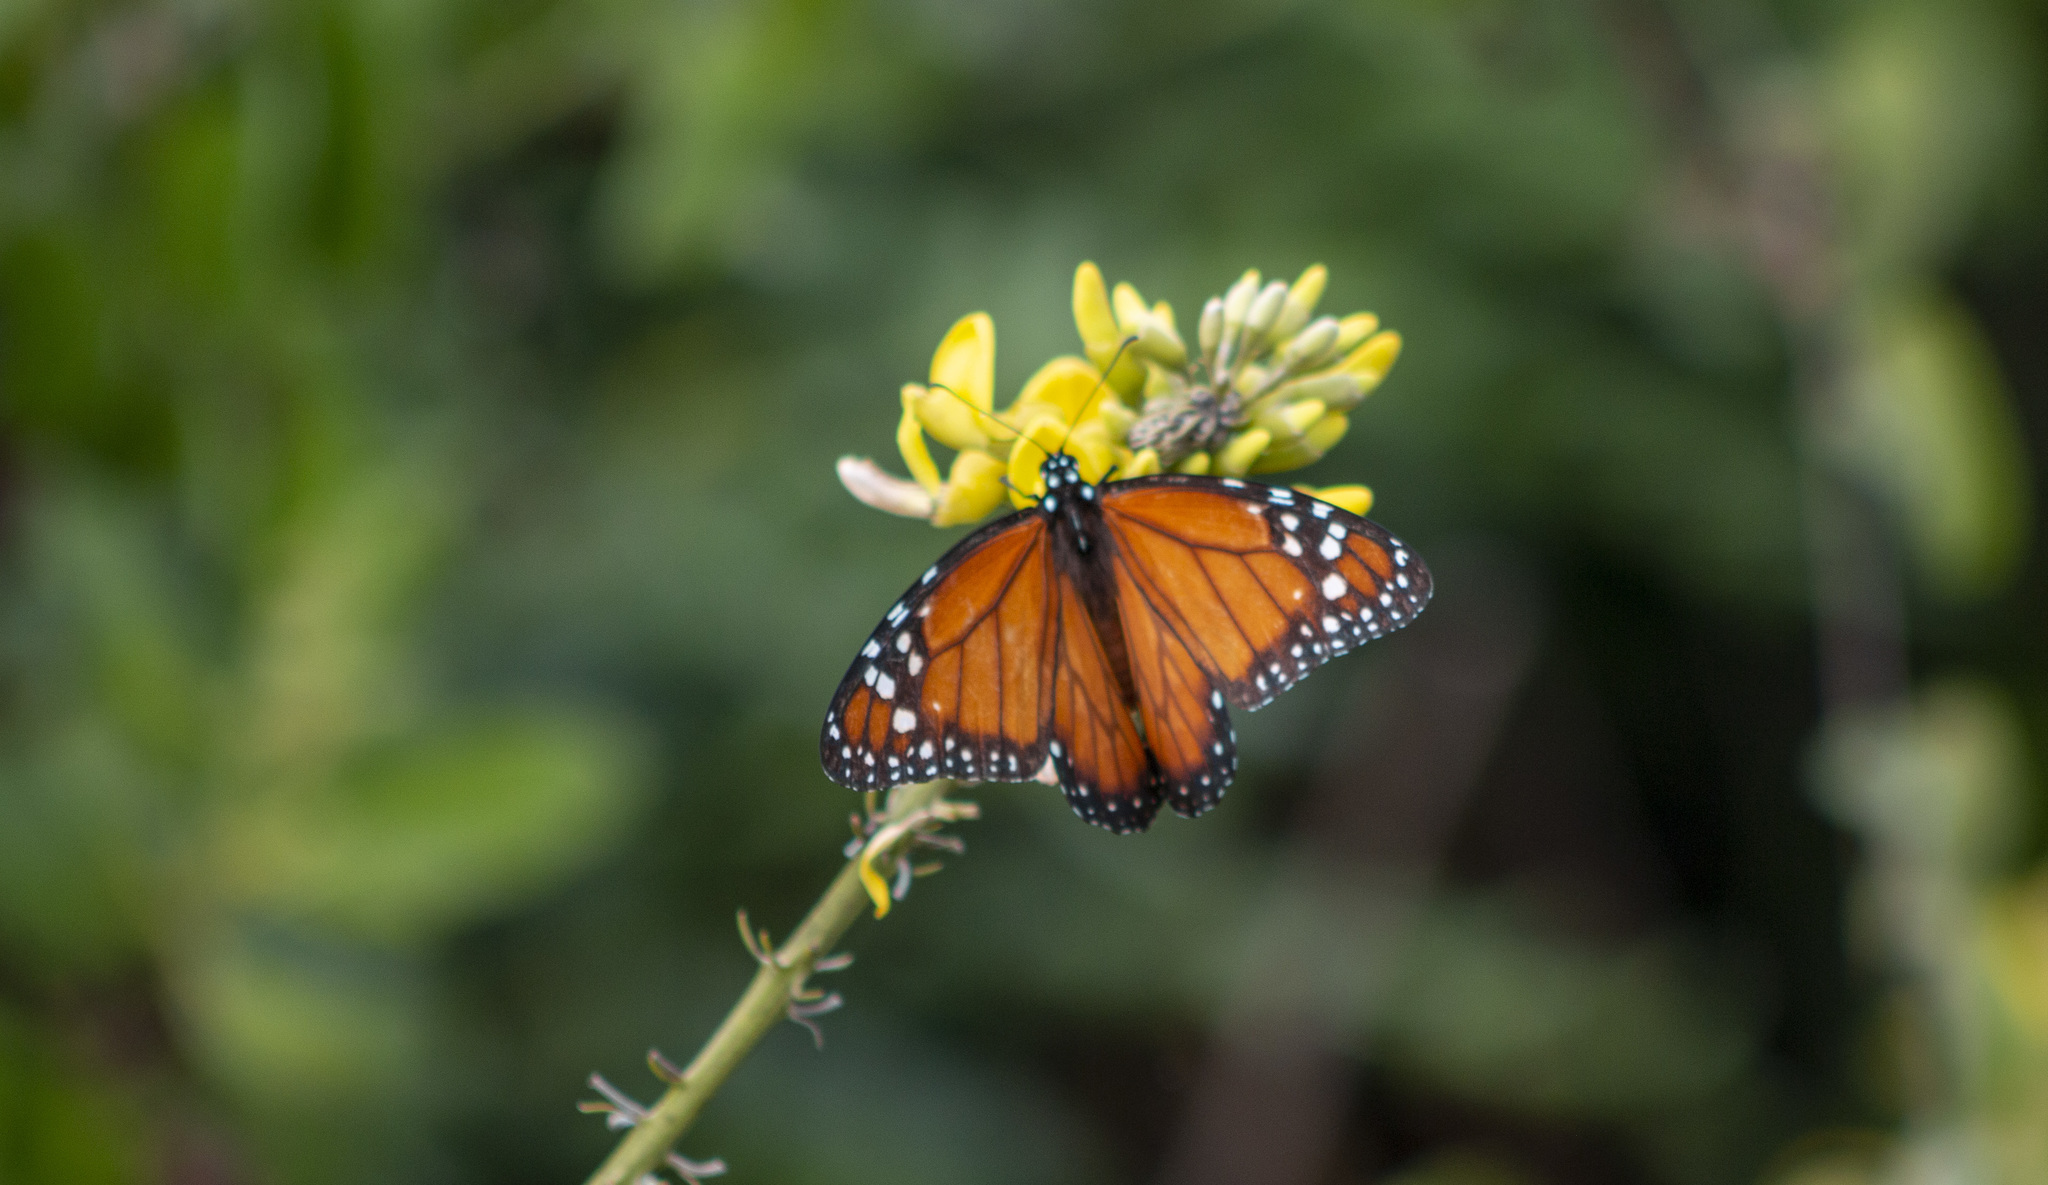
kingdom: Animalia
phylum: Arthropoda
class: Insecta
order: Lepidoptera
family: Nymphalidae
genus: Danaus
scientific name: Danaus erippus
